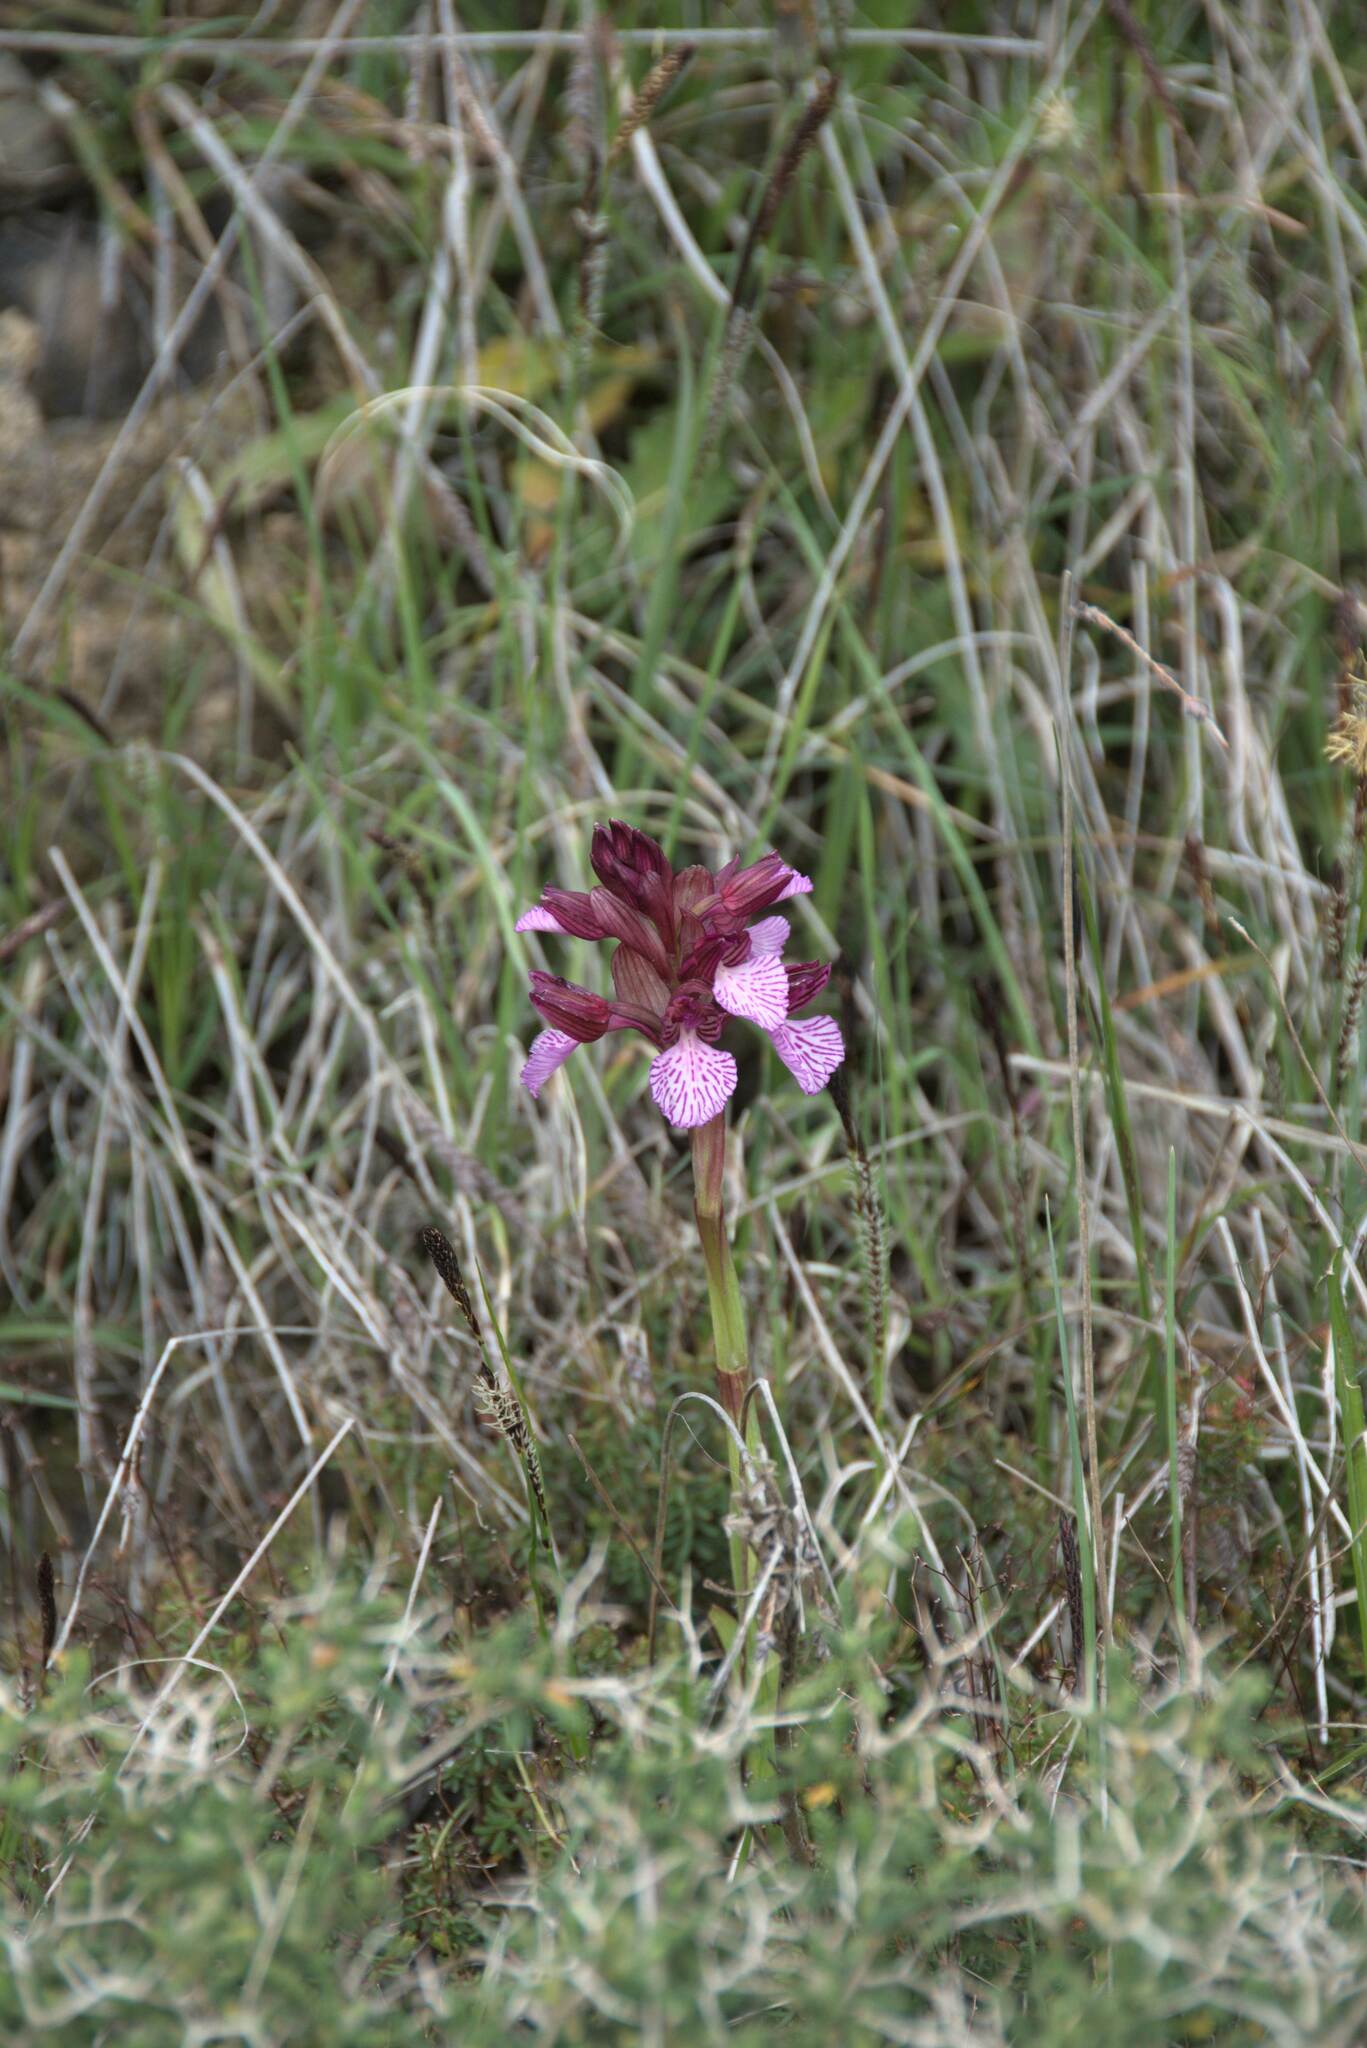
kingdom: Plantae
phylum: Tracheophyta
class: Liliopsida
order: Asparagales
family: Orchidaceae
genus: Anacamptis
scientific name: Anacamptis papilionacea
